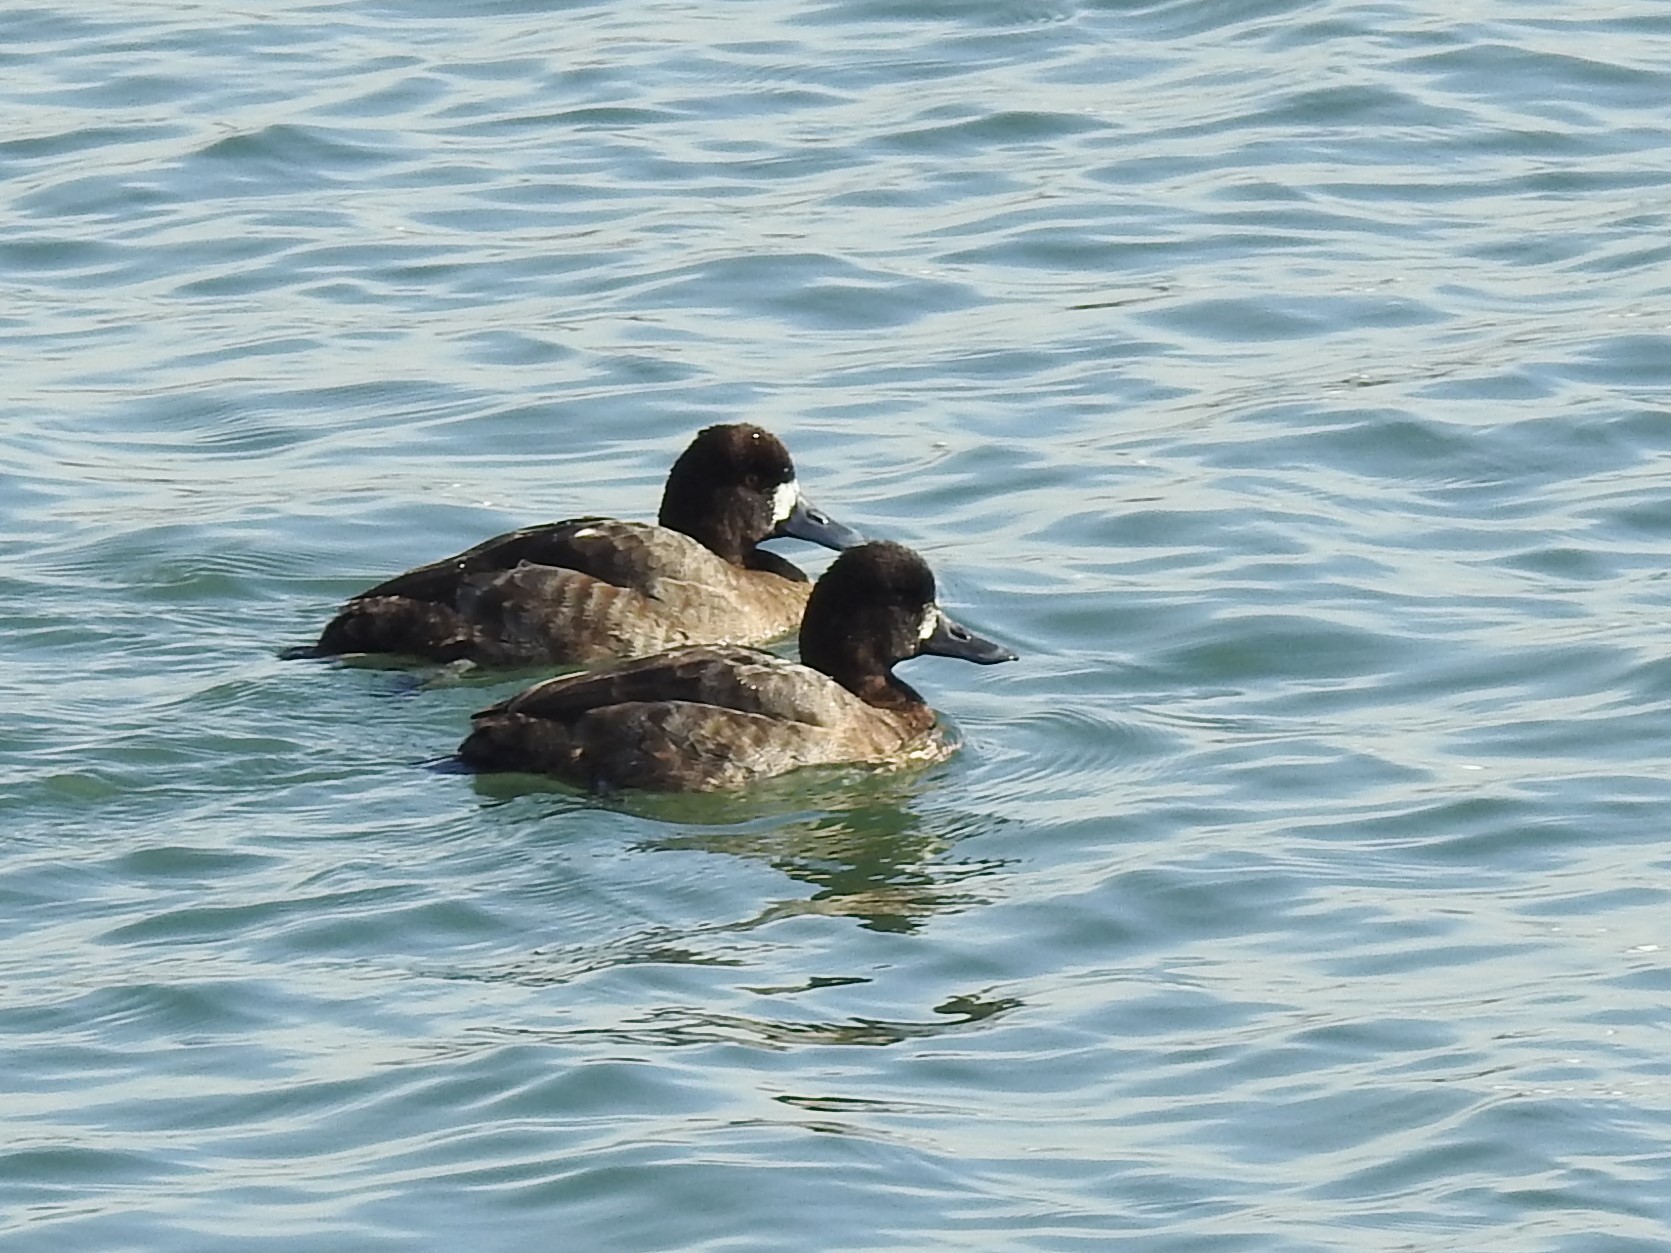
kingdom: Animalia
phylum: Chordata
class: Aves
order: Anseriformes
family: Anatidae
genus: Aythya
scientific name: Aythya marila
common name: Greater scaup
